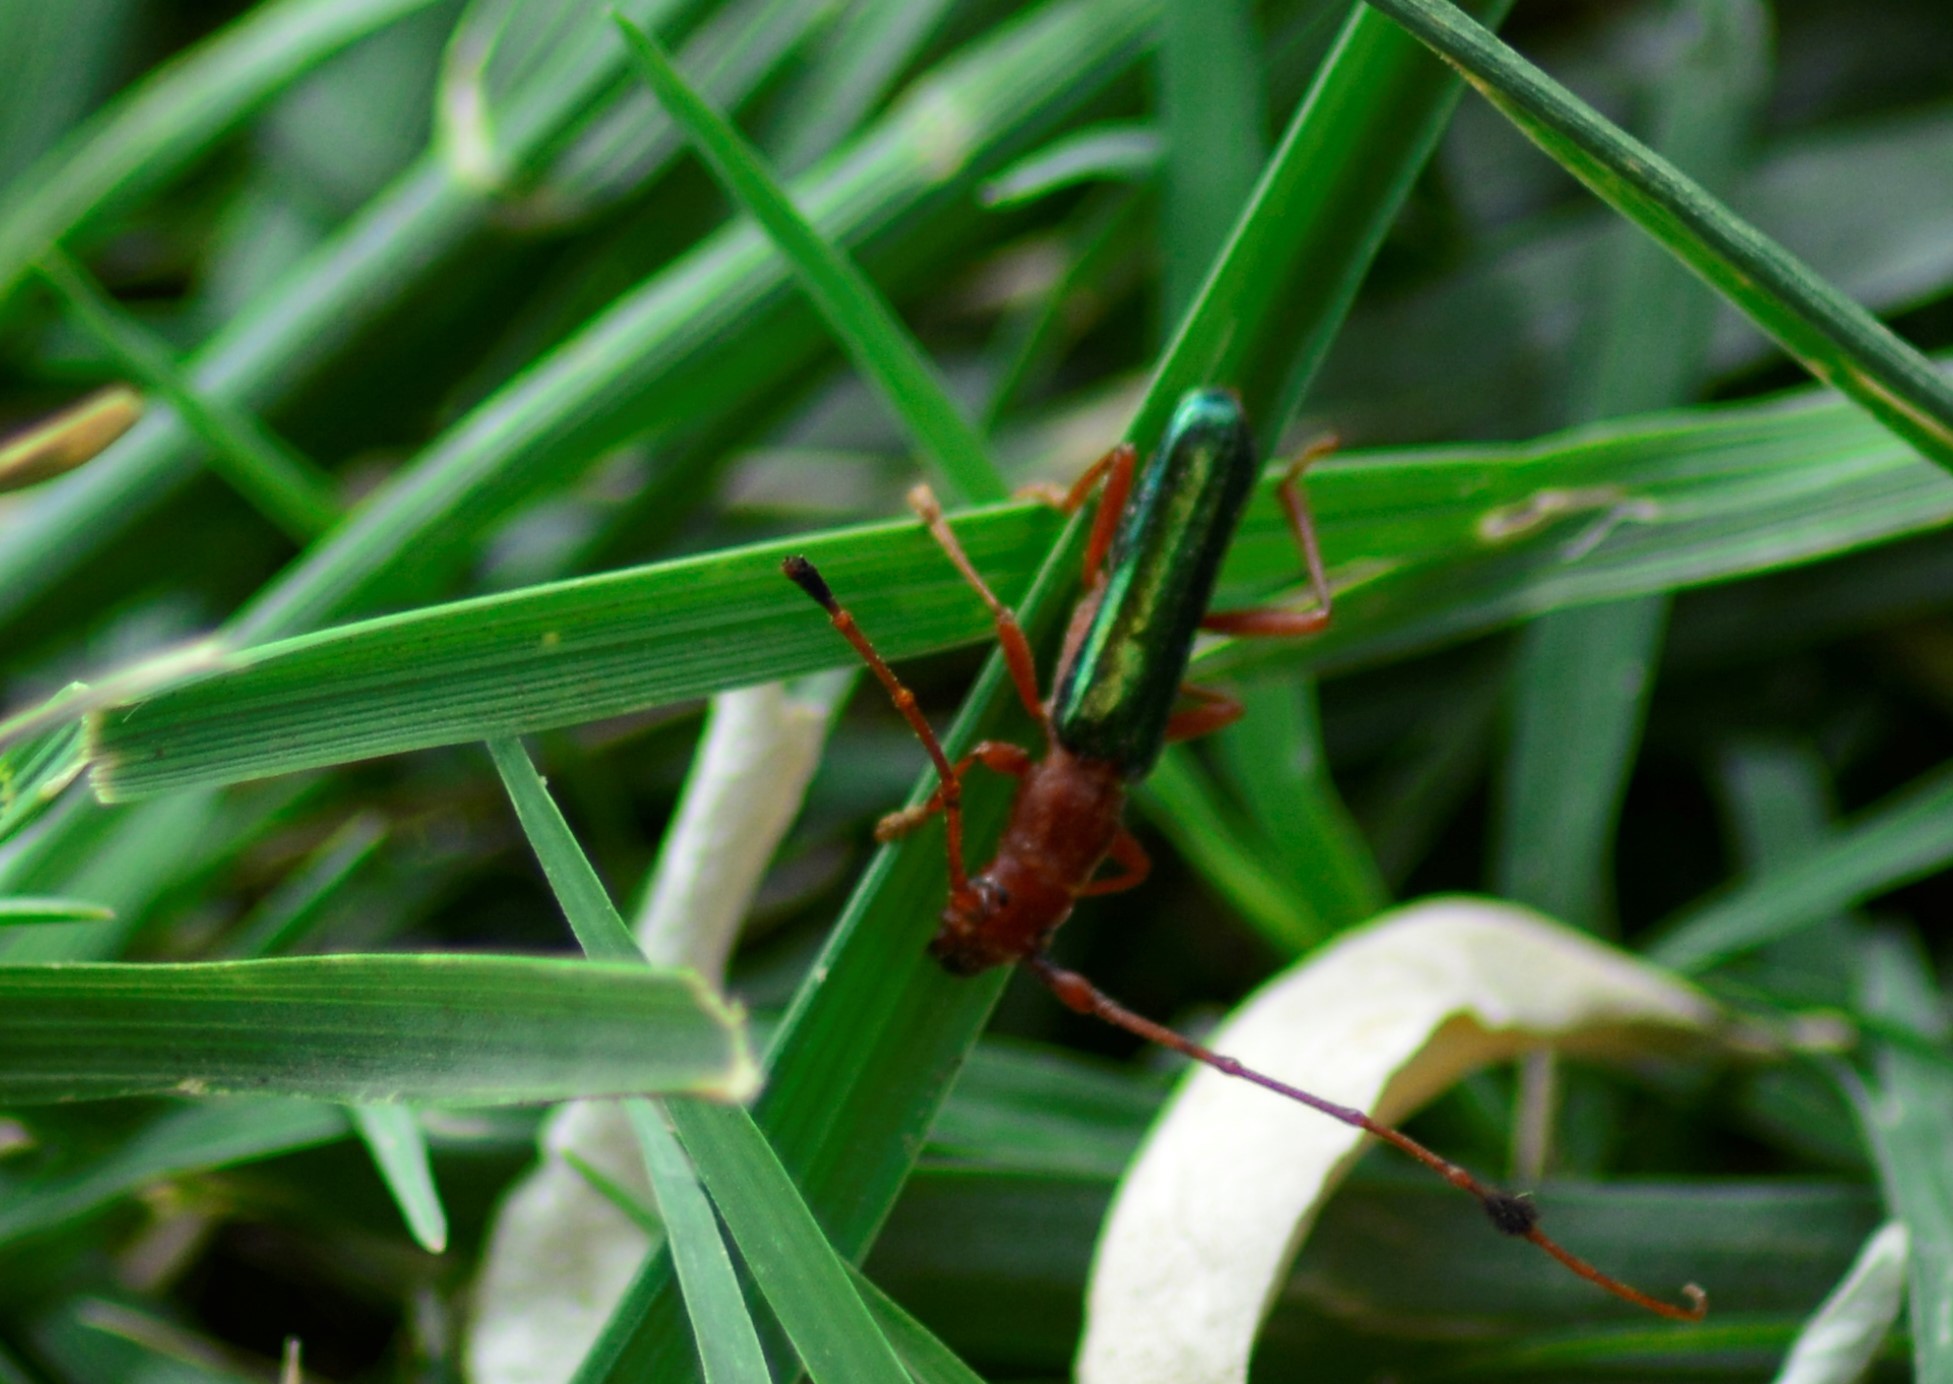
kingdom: Animalia
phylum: Arthropoda
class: Insecta
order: Coleoptera
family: Cerambycidae
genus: Compsocerus
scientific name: Compsocerus violaceus
